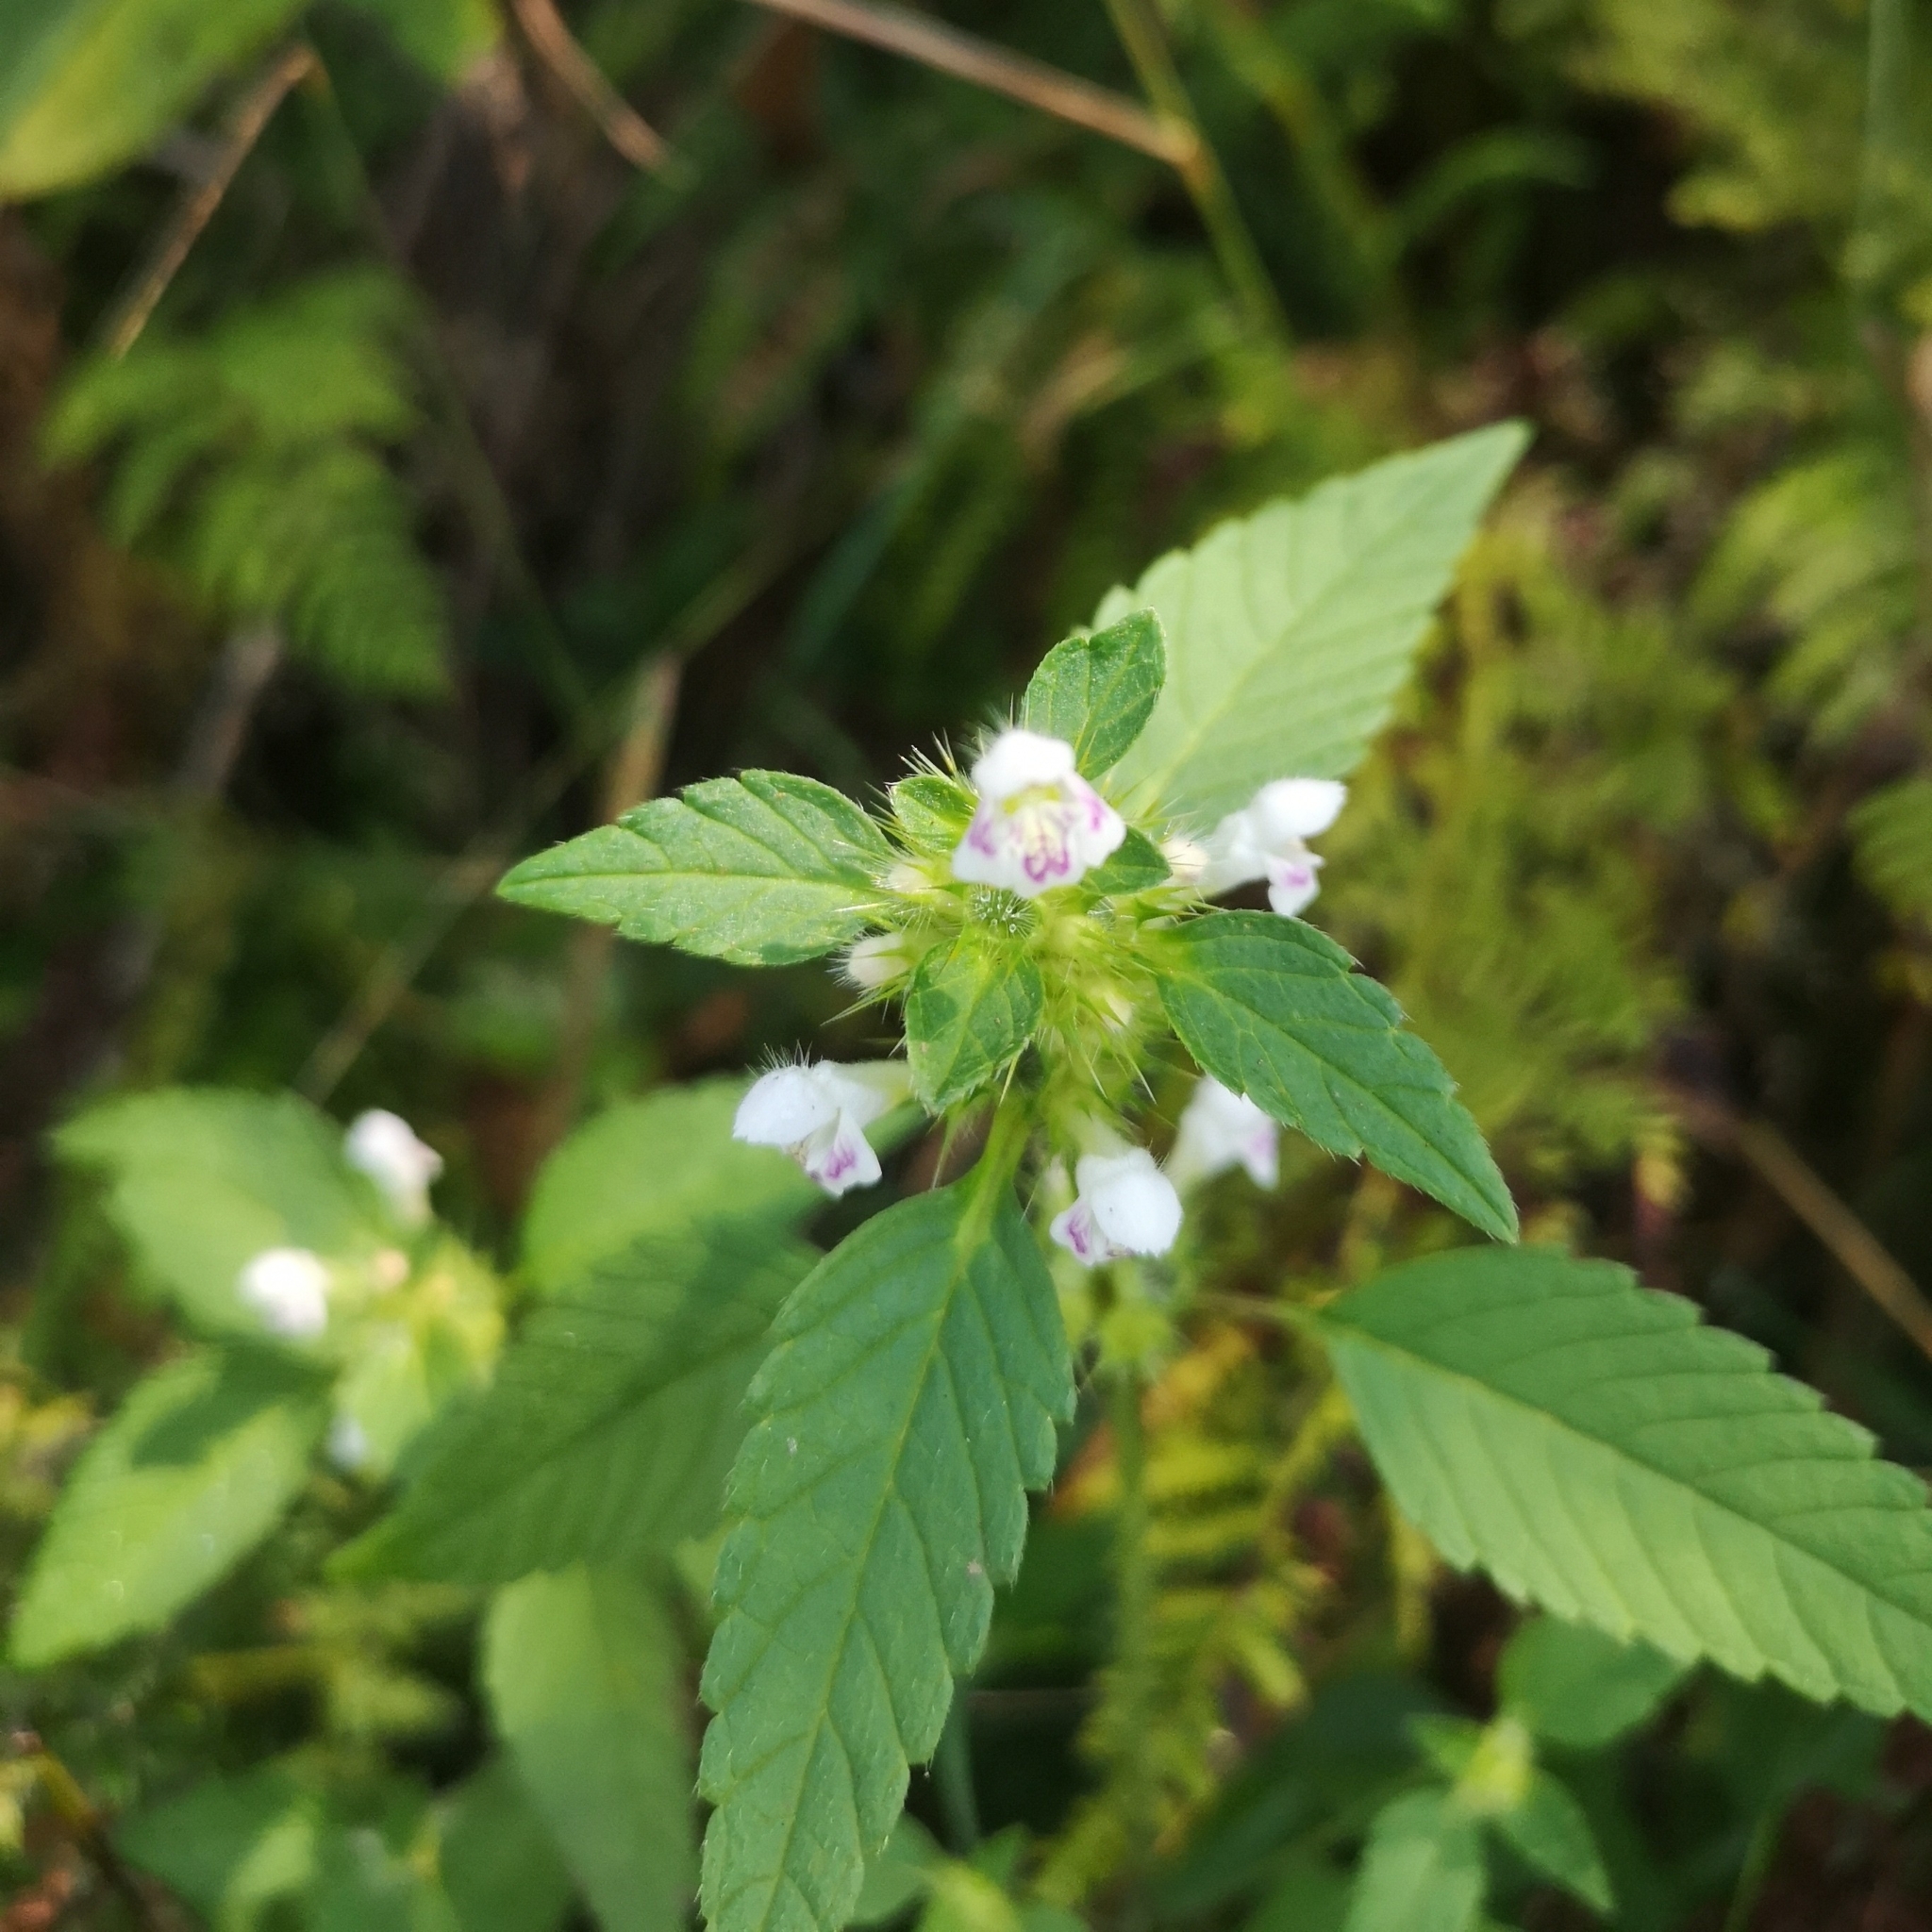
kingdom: Plantae
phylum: Tracheophyta
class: Magnoliopsida
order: Lamiales
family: Lamiaceae
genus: Galeopsis
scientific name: Galeopsis tetrahit
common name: Common hemp-nettle
